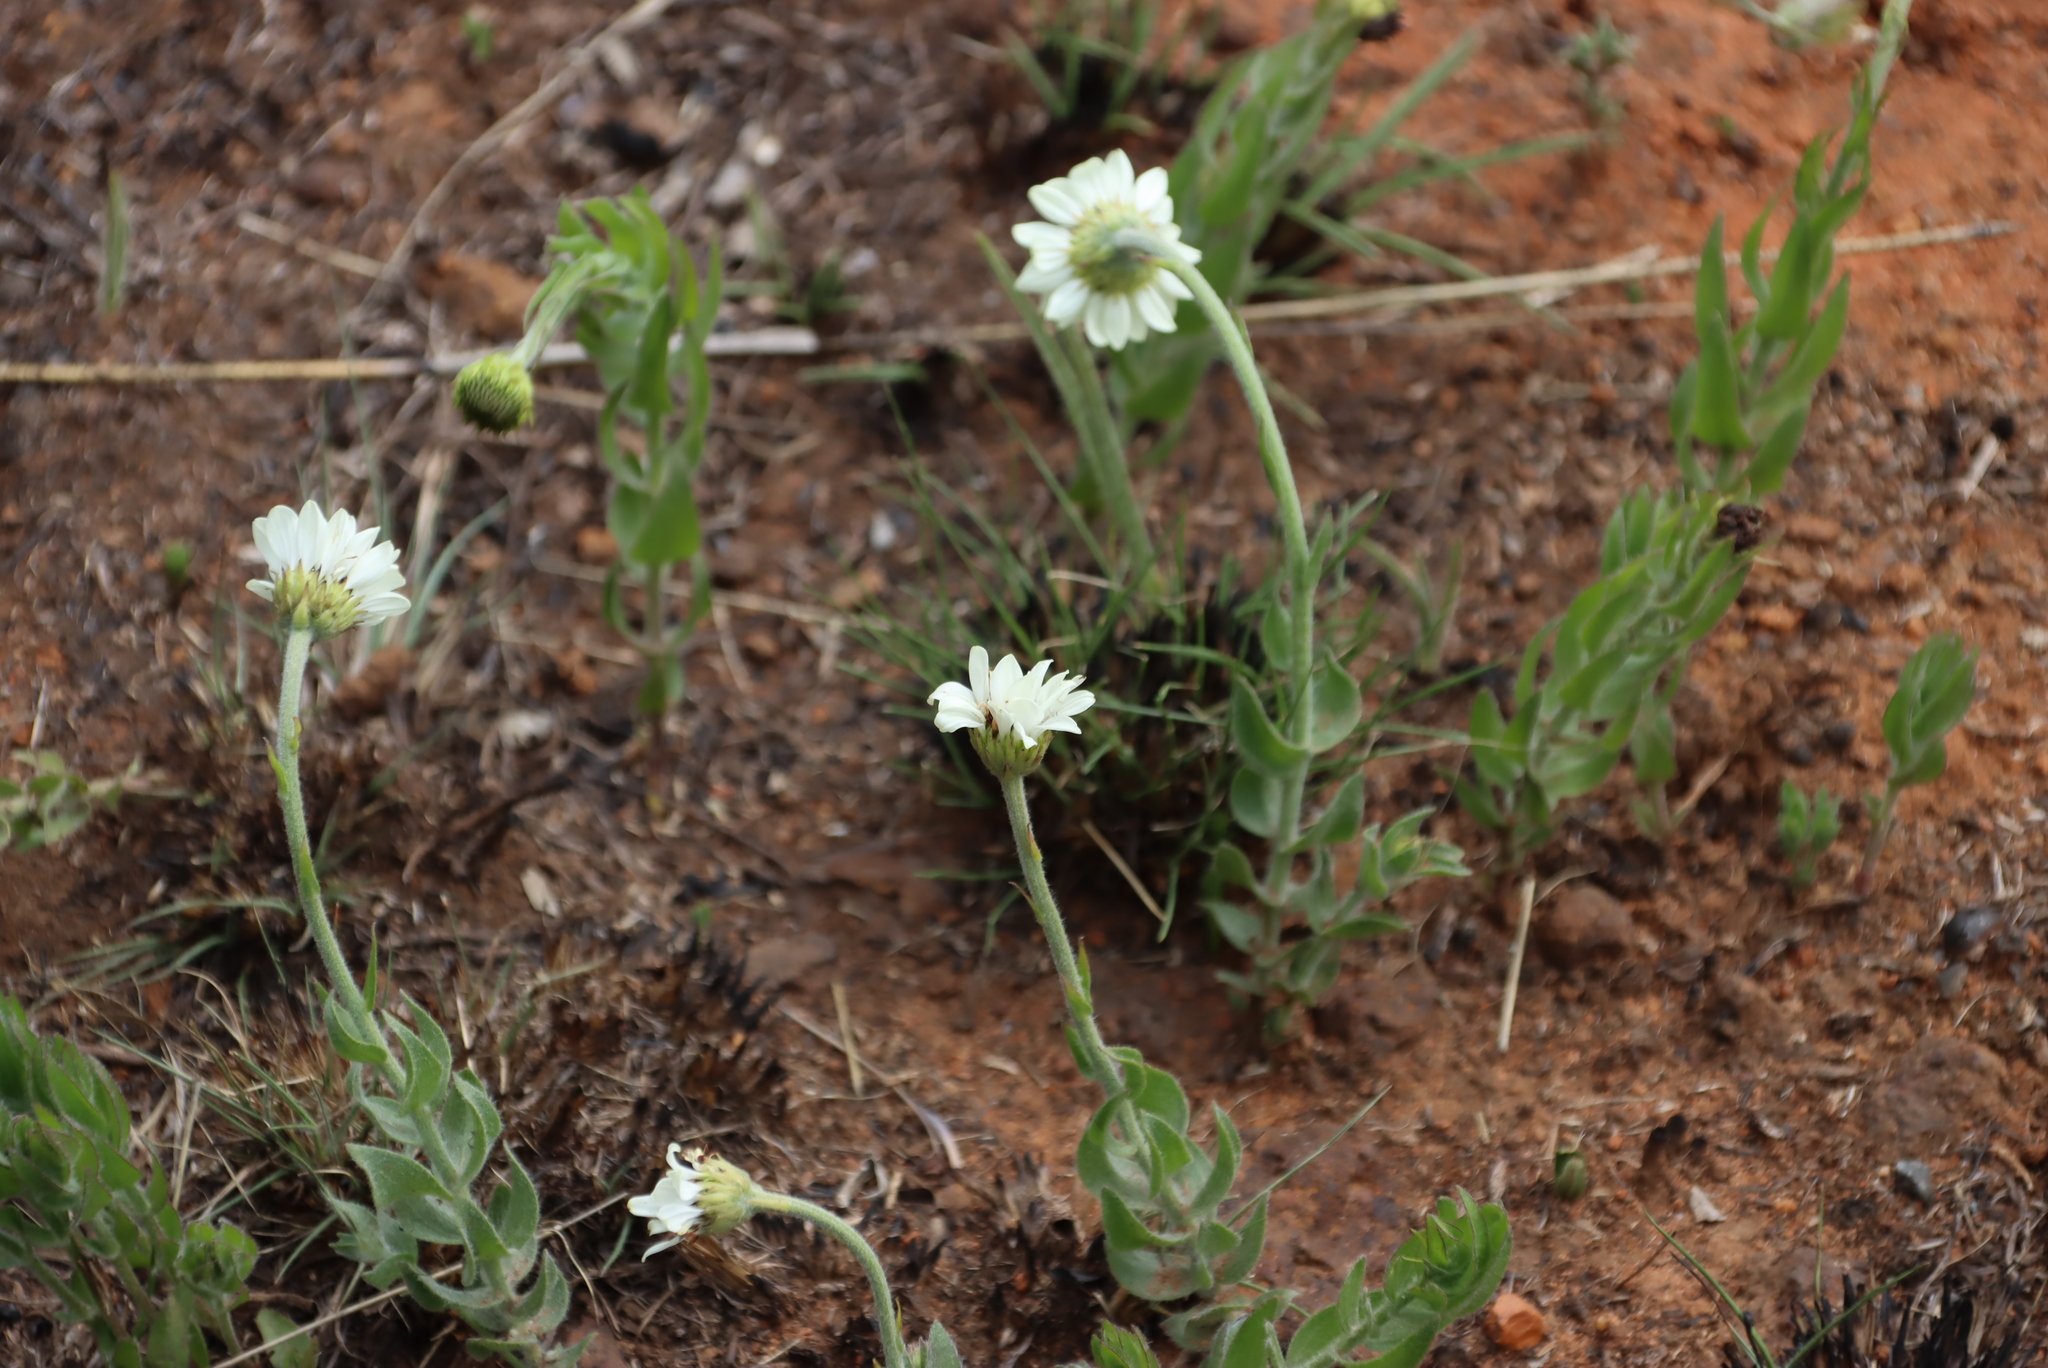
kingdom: Plantae
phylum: Tracheophyta
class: Magnoliopsida
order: Asterales
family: Asteraceae
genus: Callilepis
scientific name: Callilepis nepotiana
